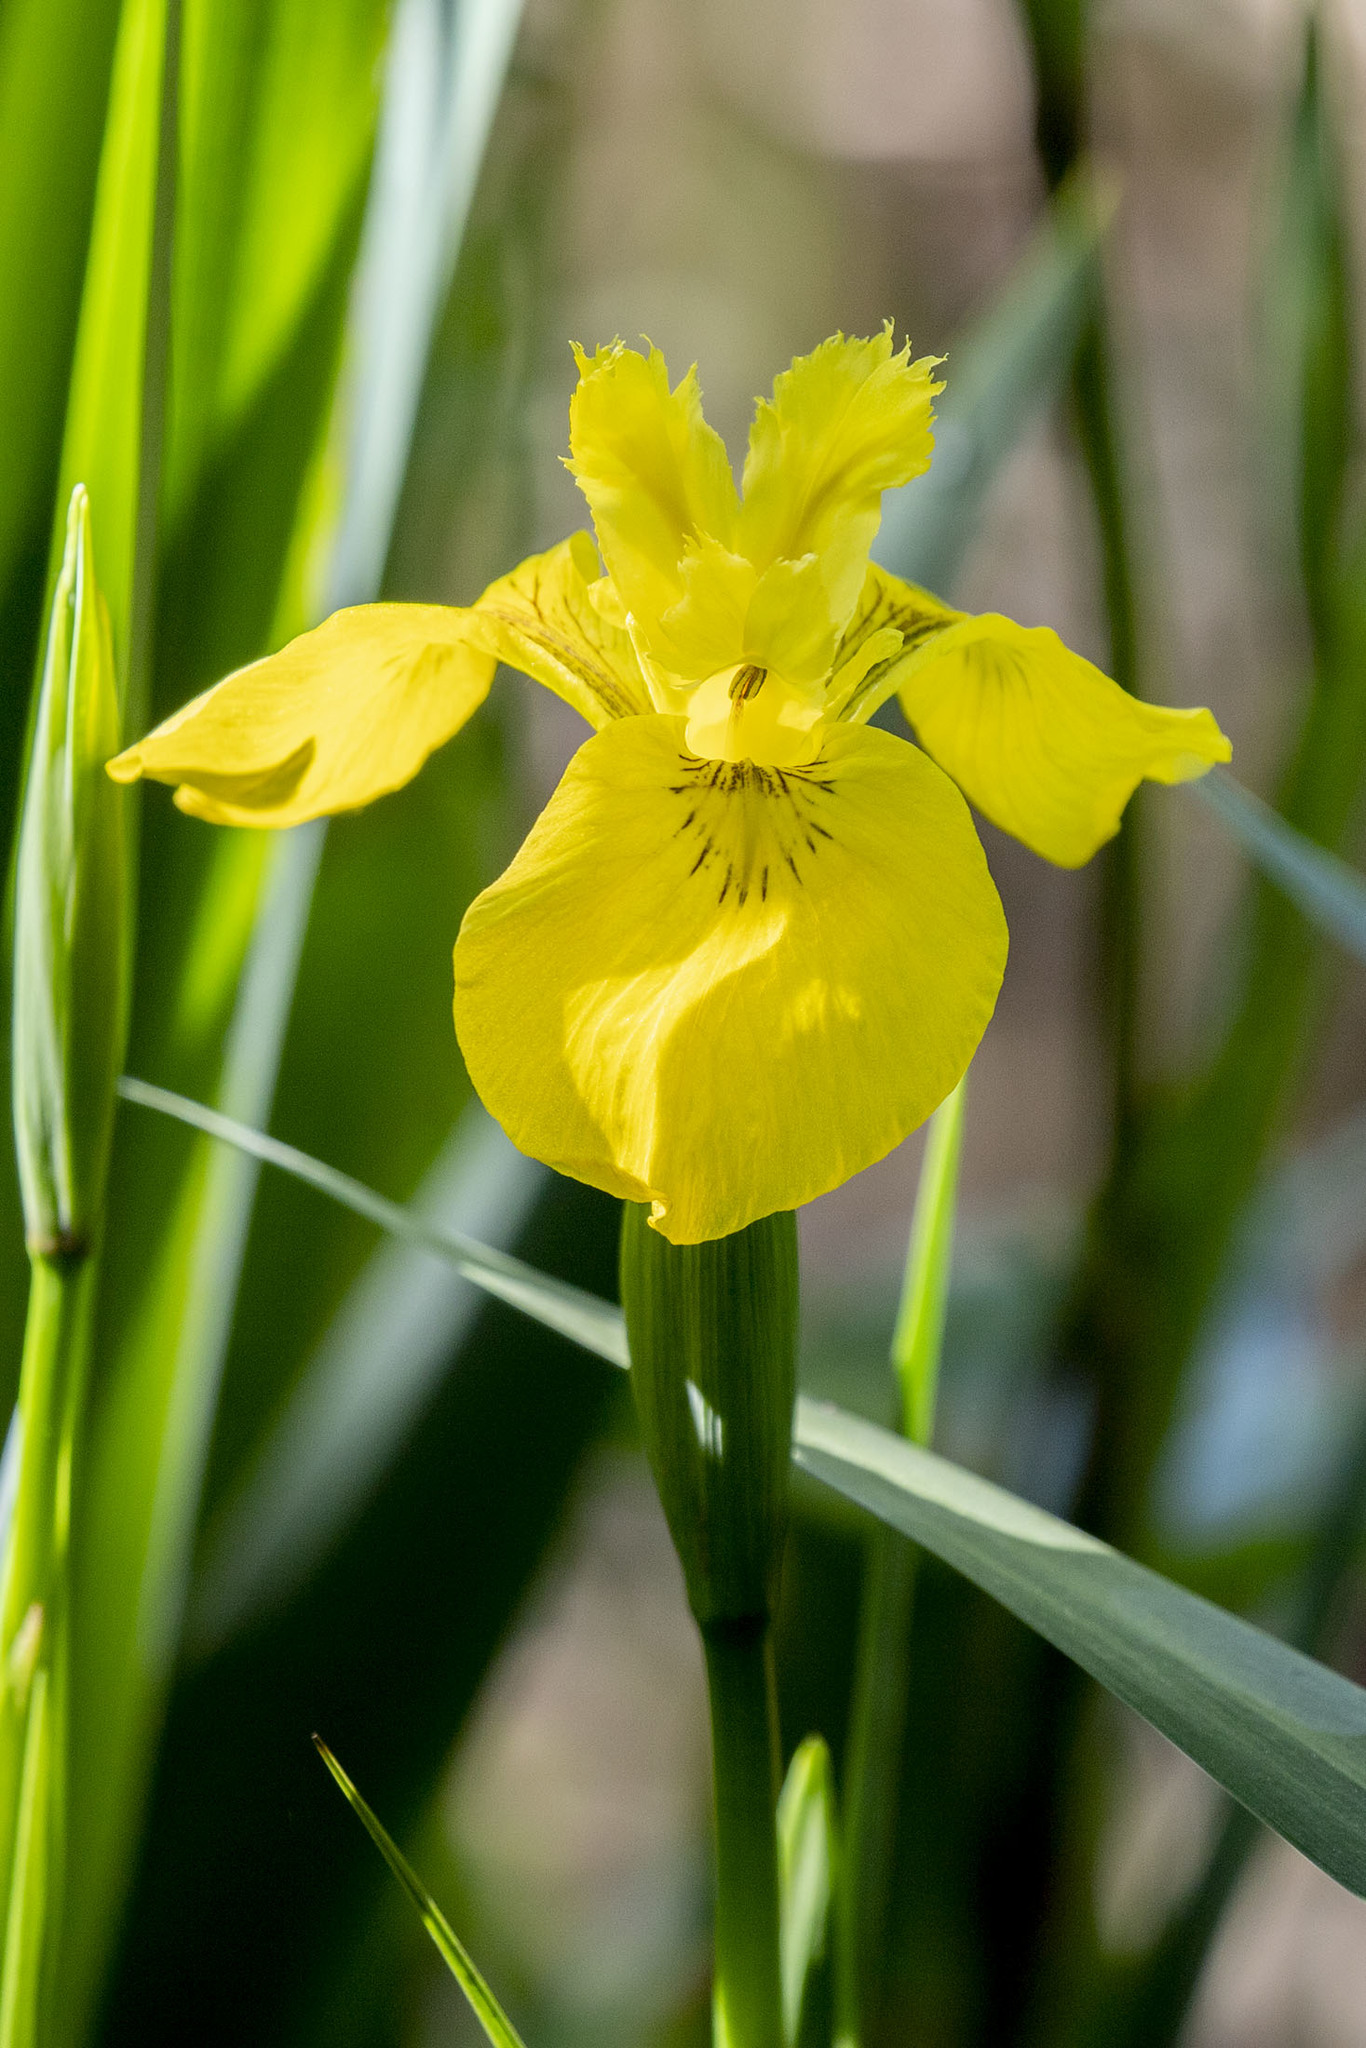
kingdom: Plantae
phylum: Tracheophyta
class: Liliopsida
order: Asparagales
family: Iridaceae
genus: Iris
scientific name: Iris pseudacorus
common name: Yellow flag
